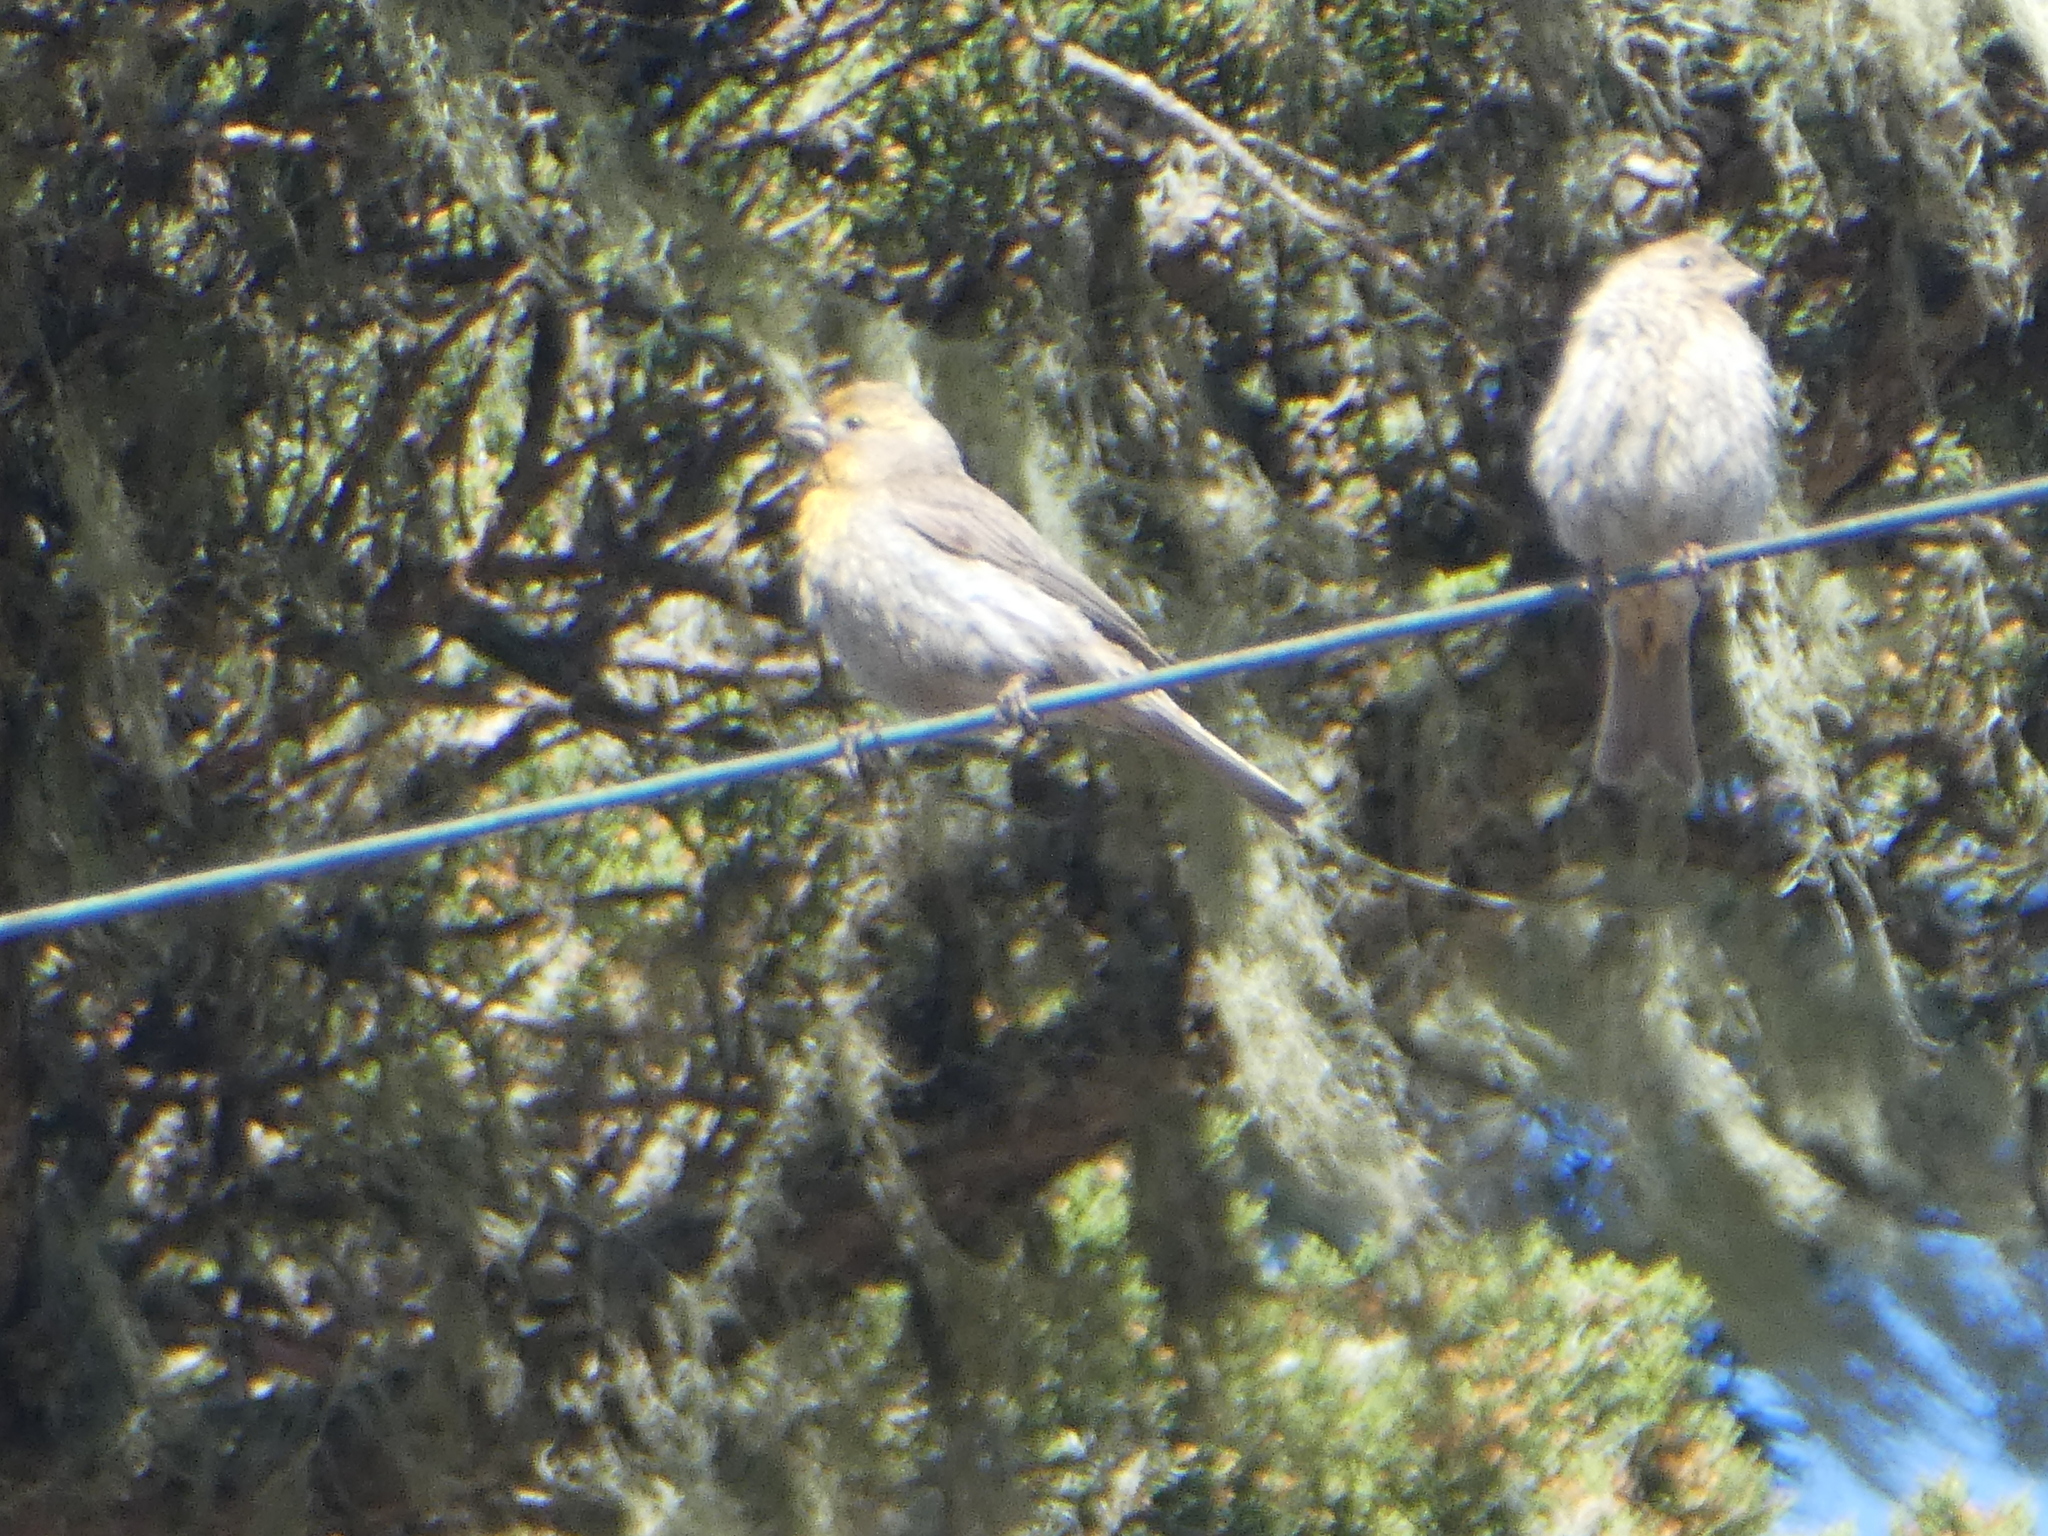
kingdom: Animalia
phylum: Chordata
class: Aves
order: Passeriformes
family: Fringillidae
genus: Haemorhous
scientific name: Haemorhous mexicanus
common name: House finch
